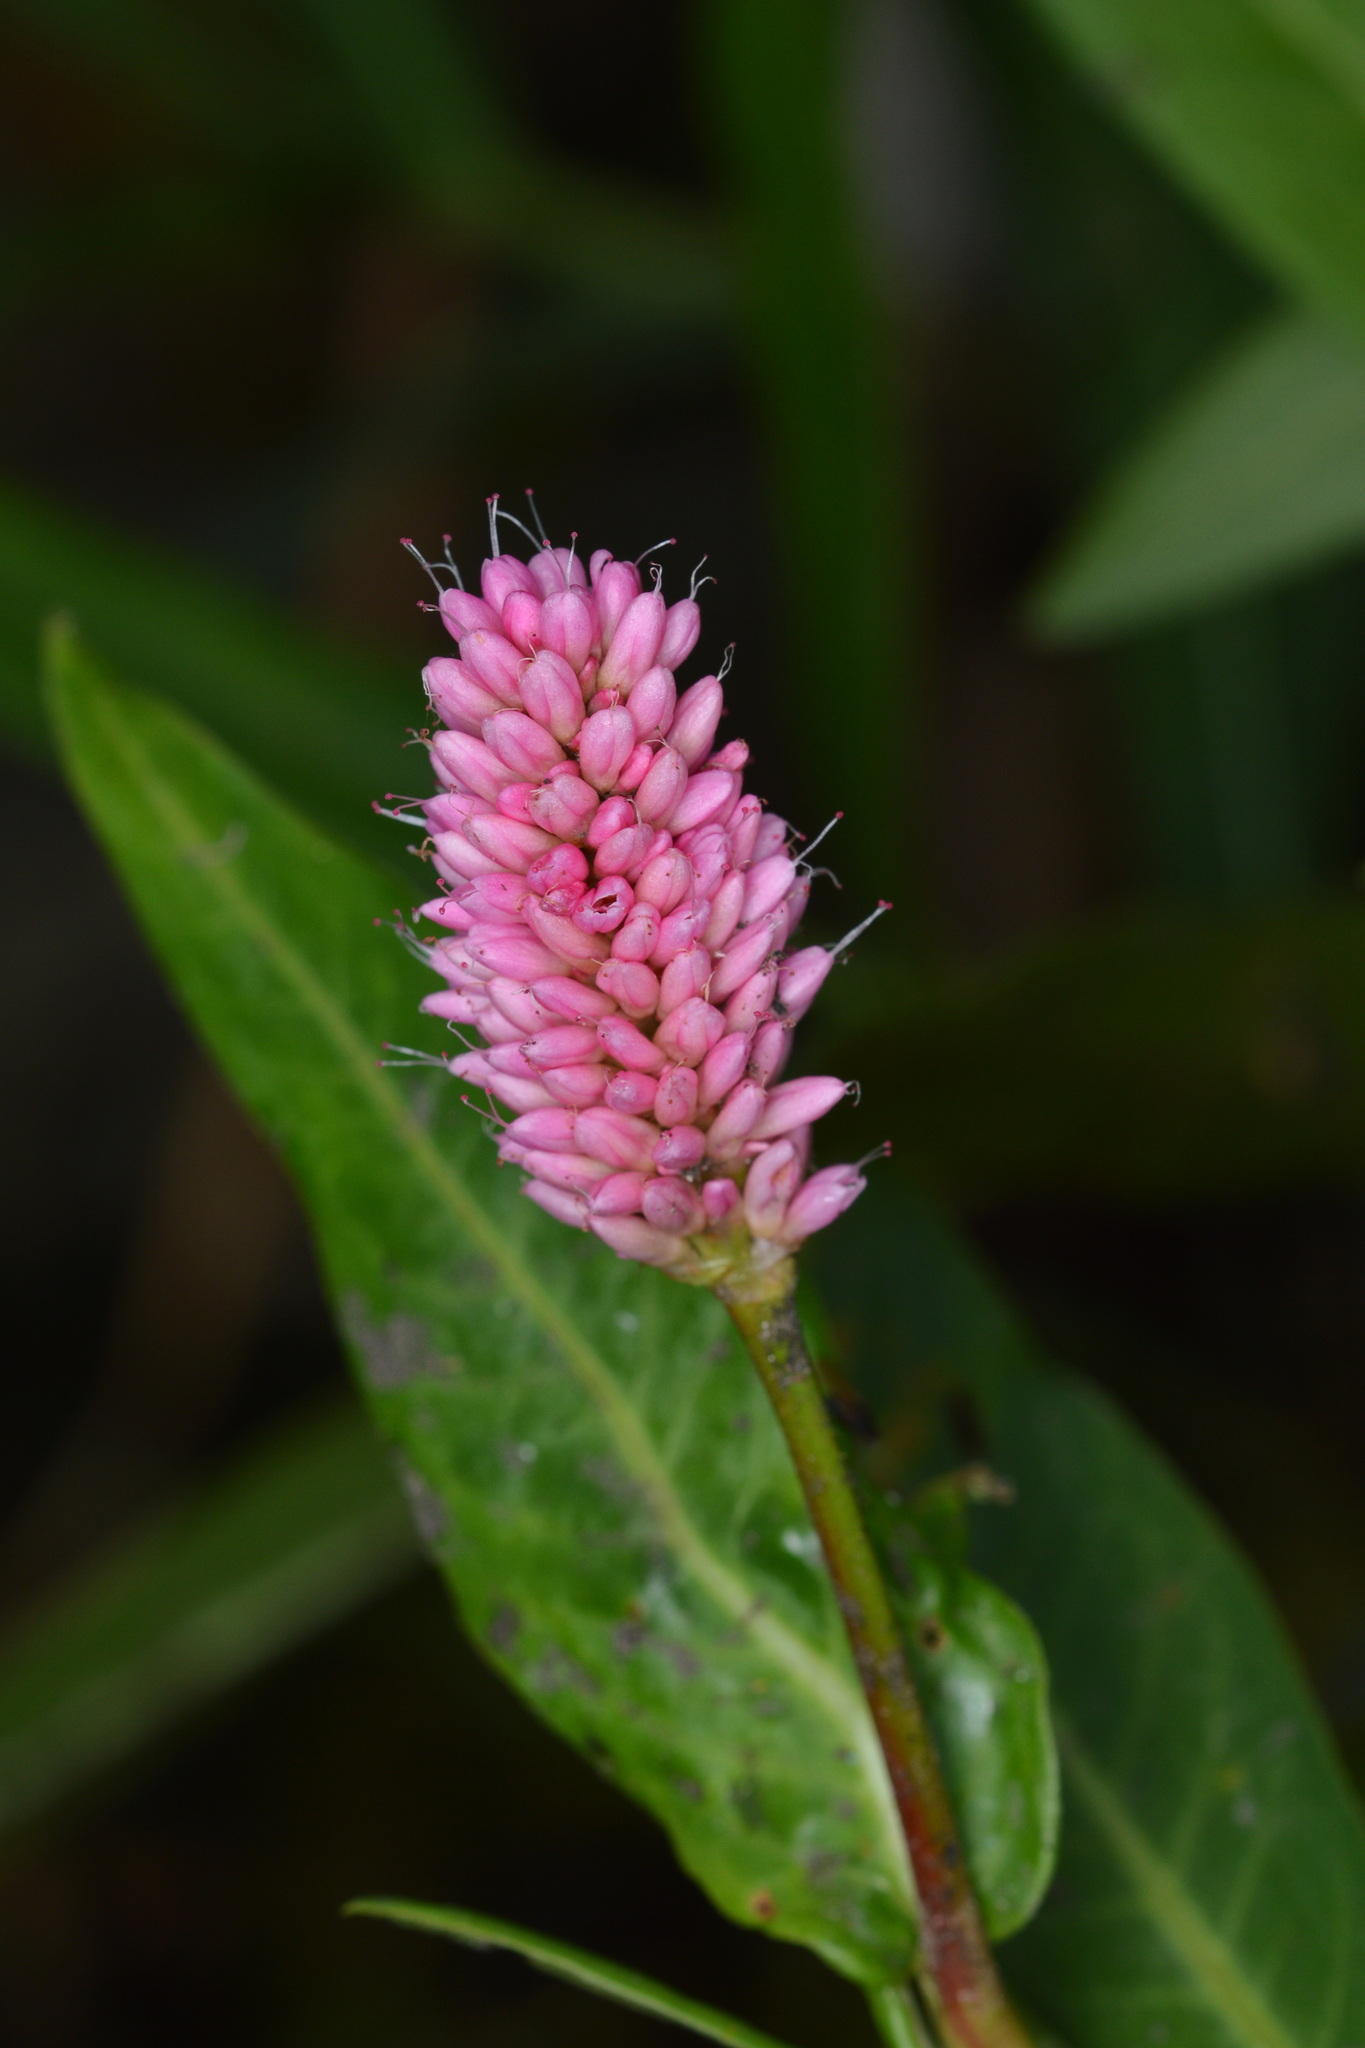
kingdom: Plantae
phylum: Tracheophyta
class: Magnoliopsida
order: Caryophyllales
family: Polygonaceae
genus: Persicaria
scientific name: Persicaria amphibia
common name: Amphibious bistort
